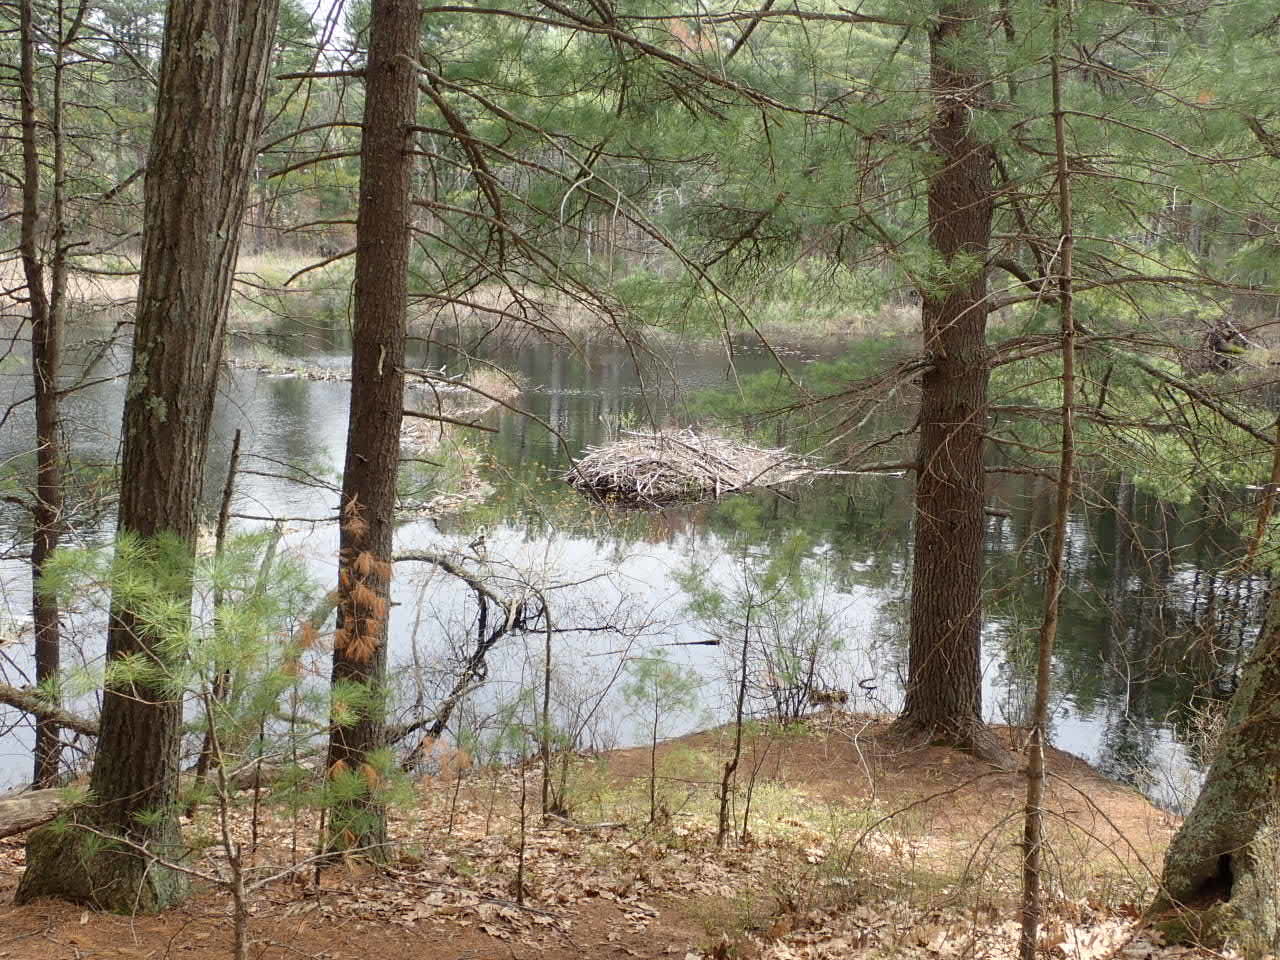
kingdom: Animalia
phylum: Chordata
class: Mammalia
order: Rodentia
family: Castoridae
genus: Castor
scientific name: Castor canadensis
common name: American beaver
